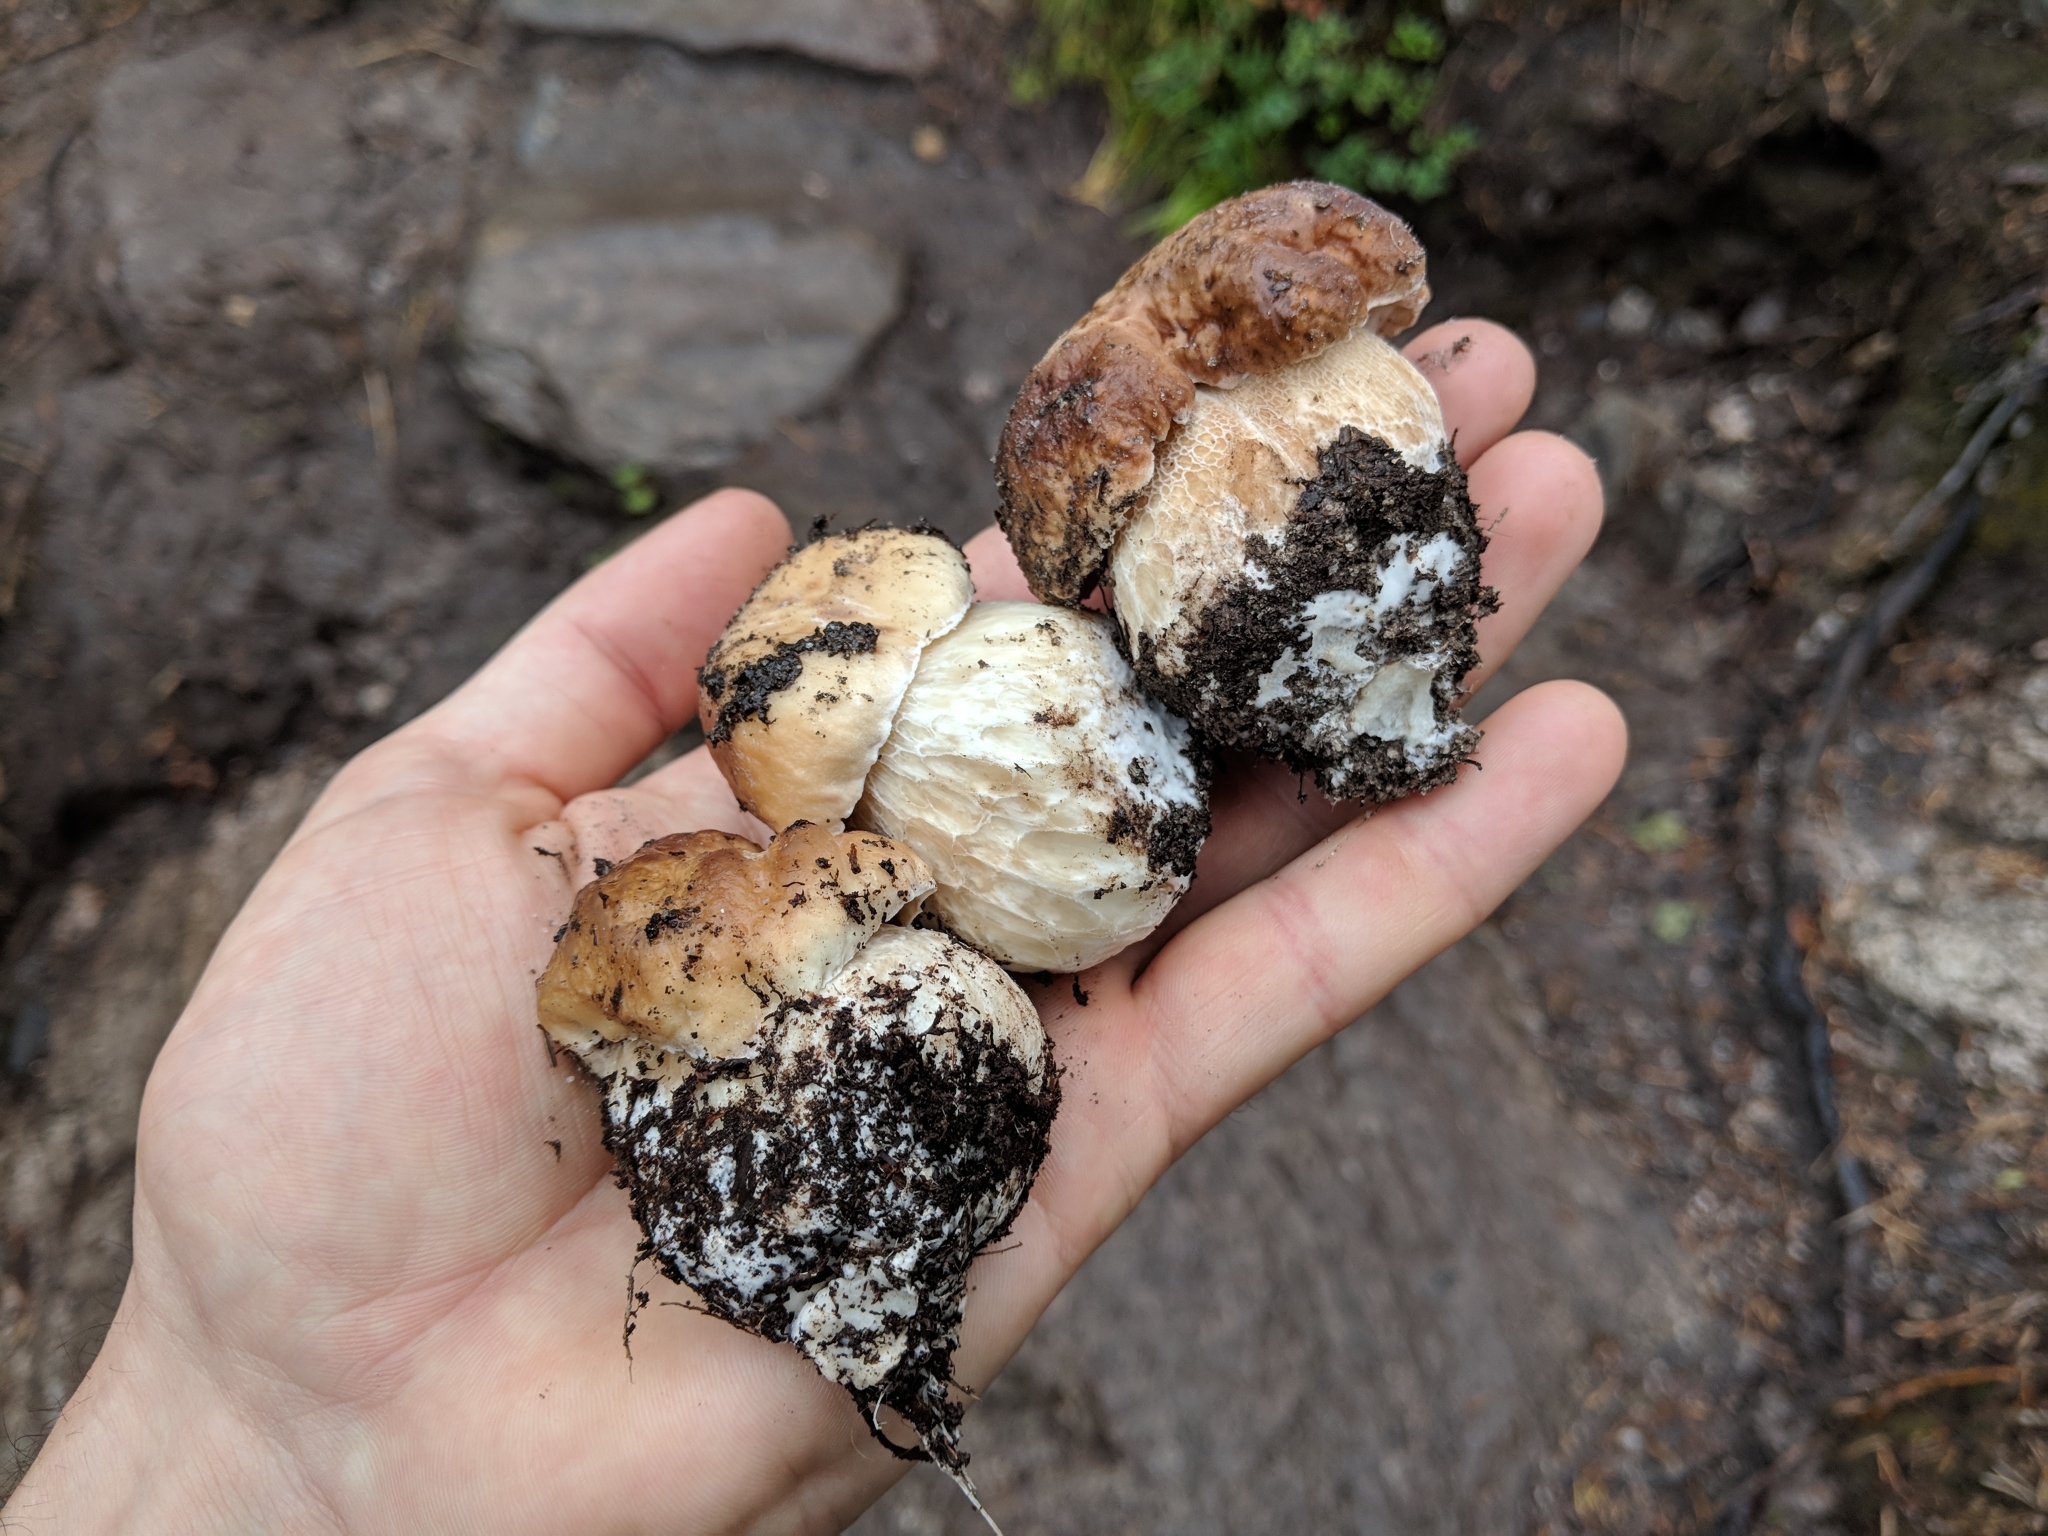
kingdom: Fungi
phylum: Basidiomycota
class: Agaricomycetes
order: Boletales
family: Boletaceae
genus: Boletus
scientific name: Boletus edulis
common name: Cep
